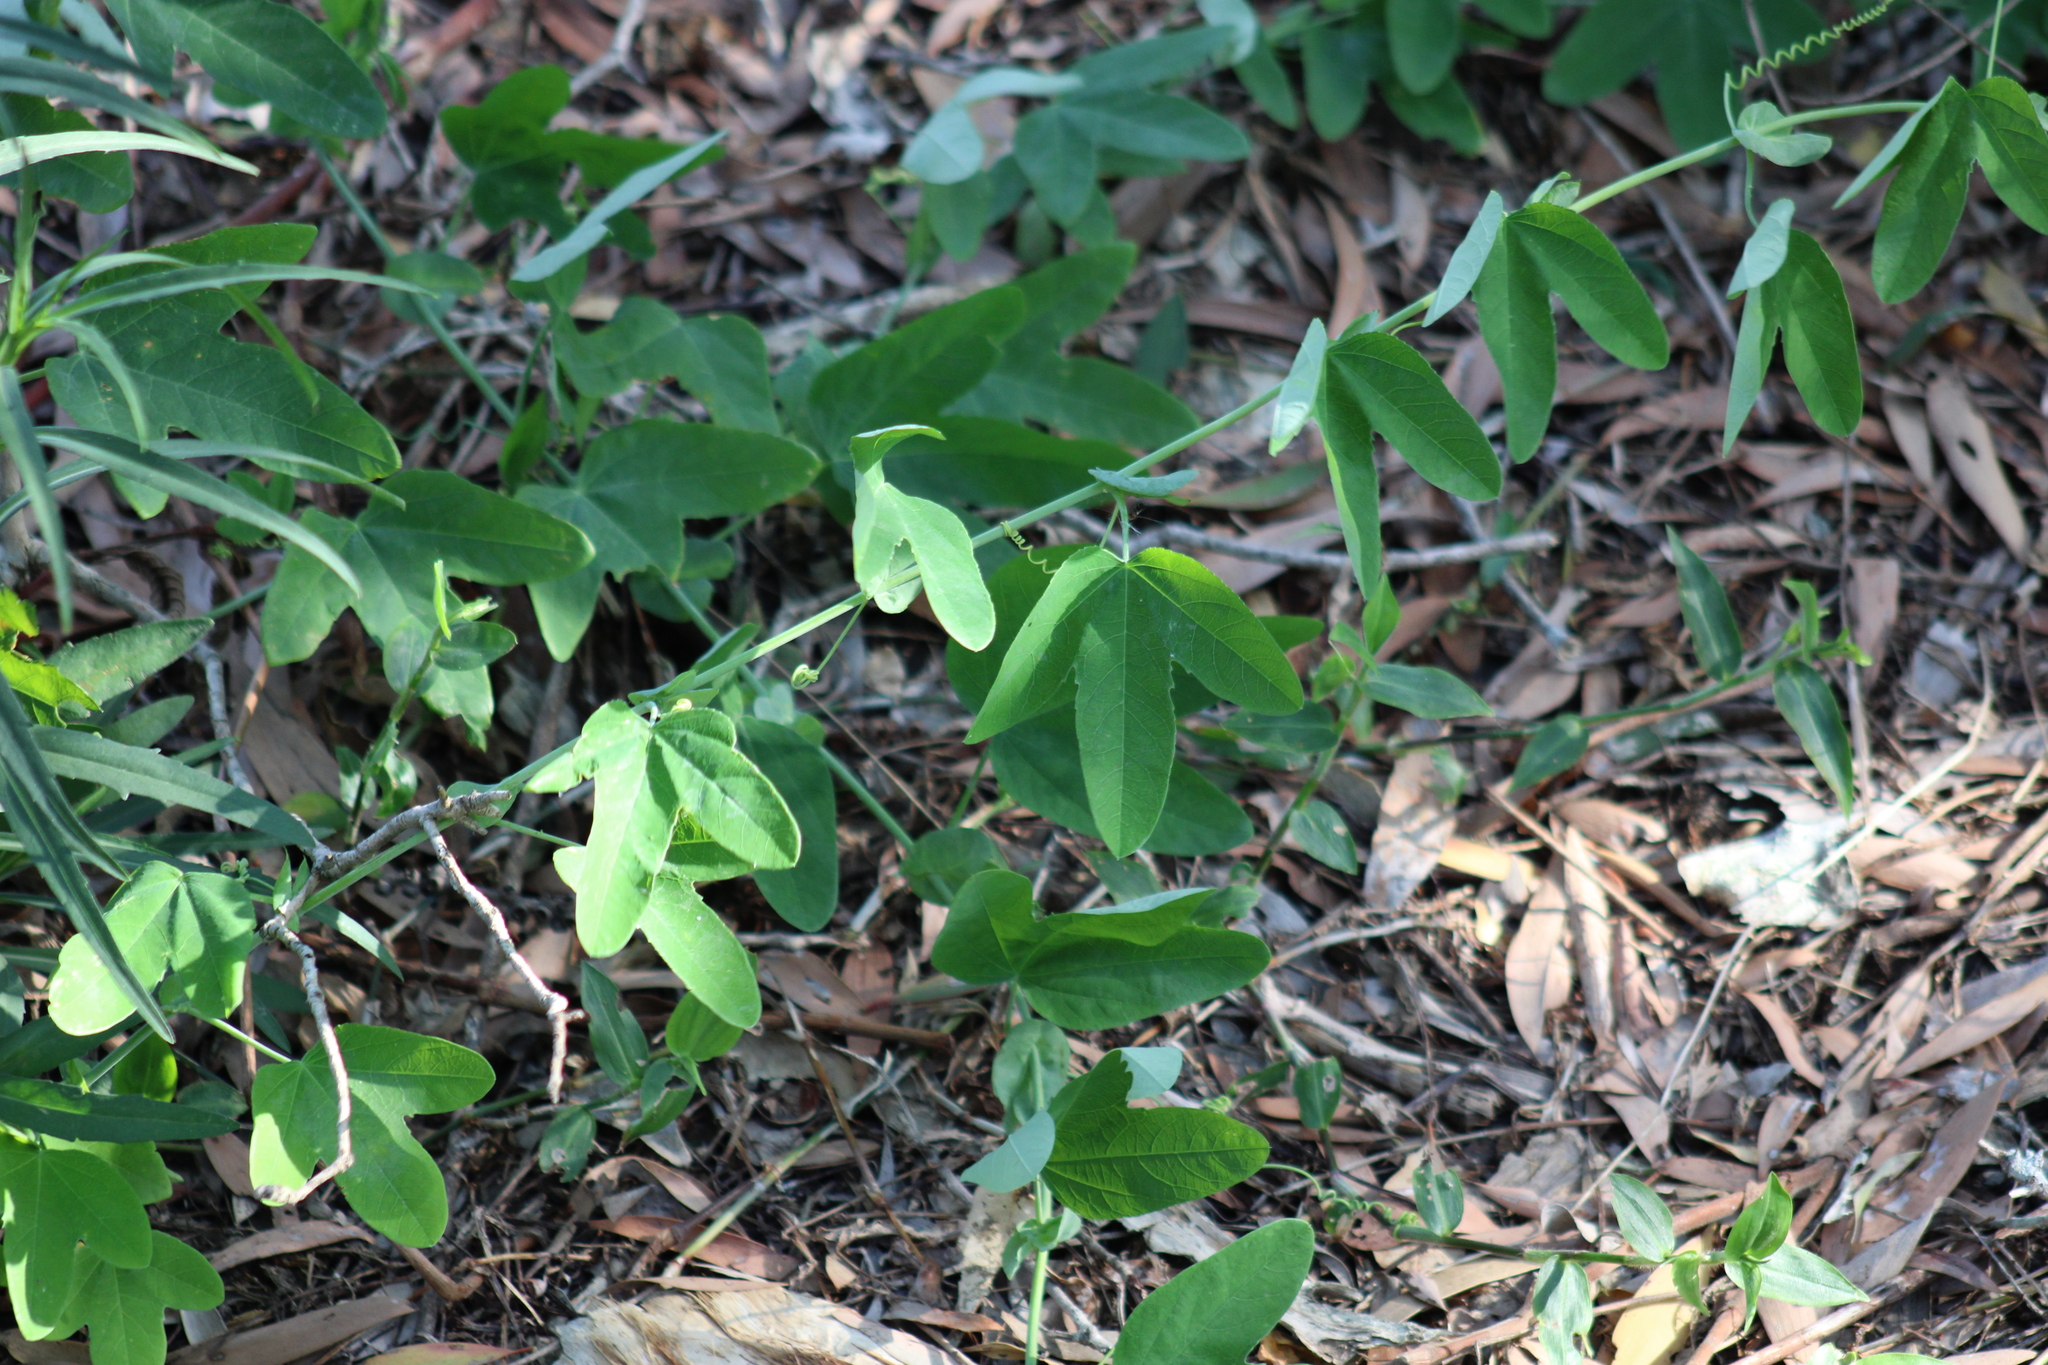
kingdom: Plantae
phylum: Tracheophyta
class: Magnoliopsida
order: Malpighiales
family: Passifloraceae
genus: Passiflora
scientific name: Passiflora subpeltata
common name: White passionflower
